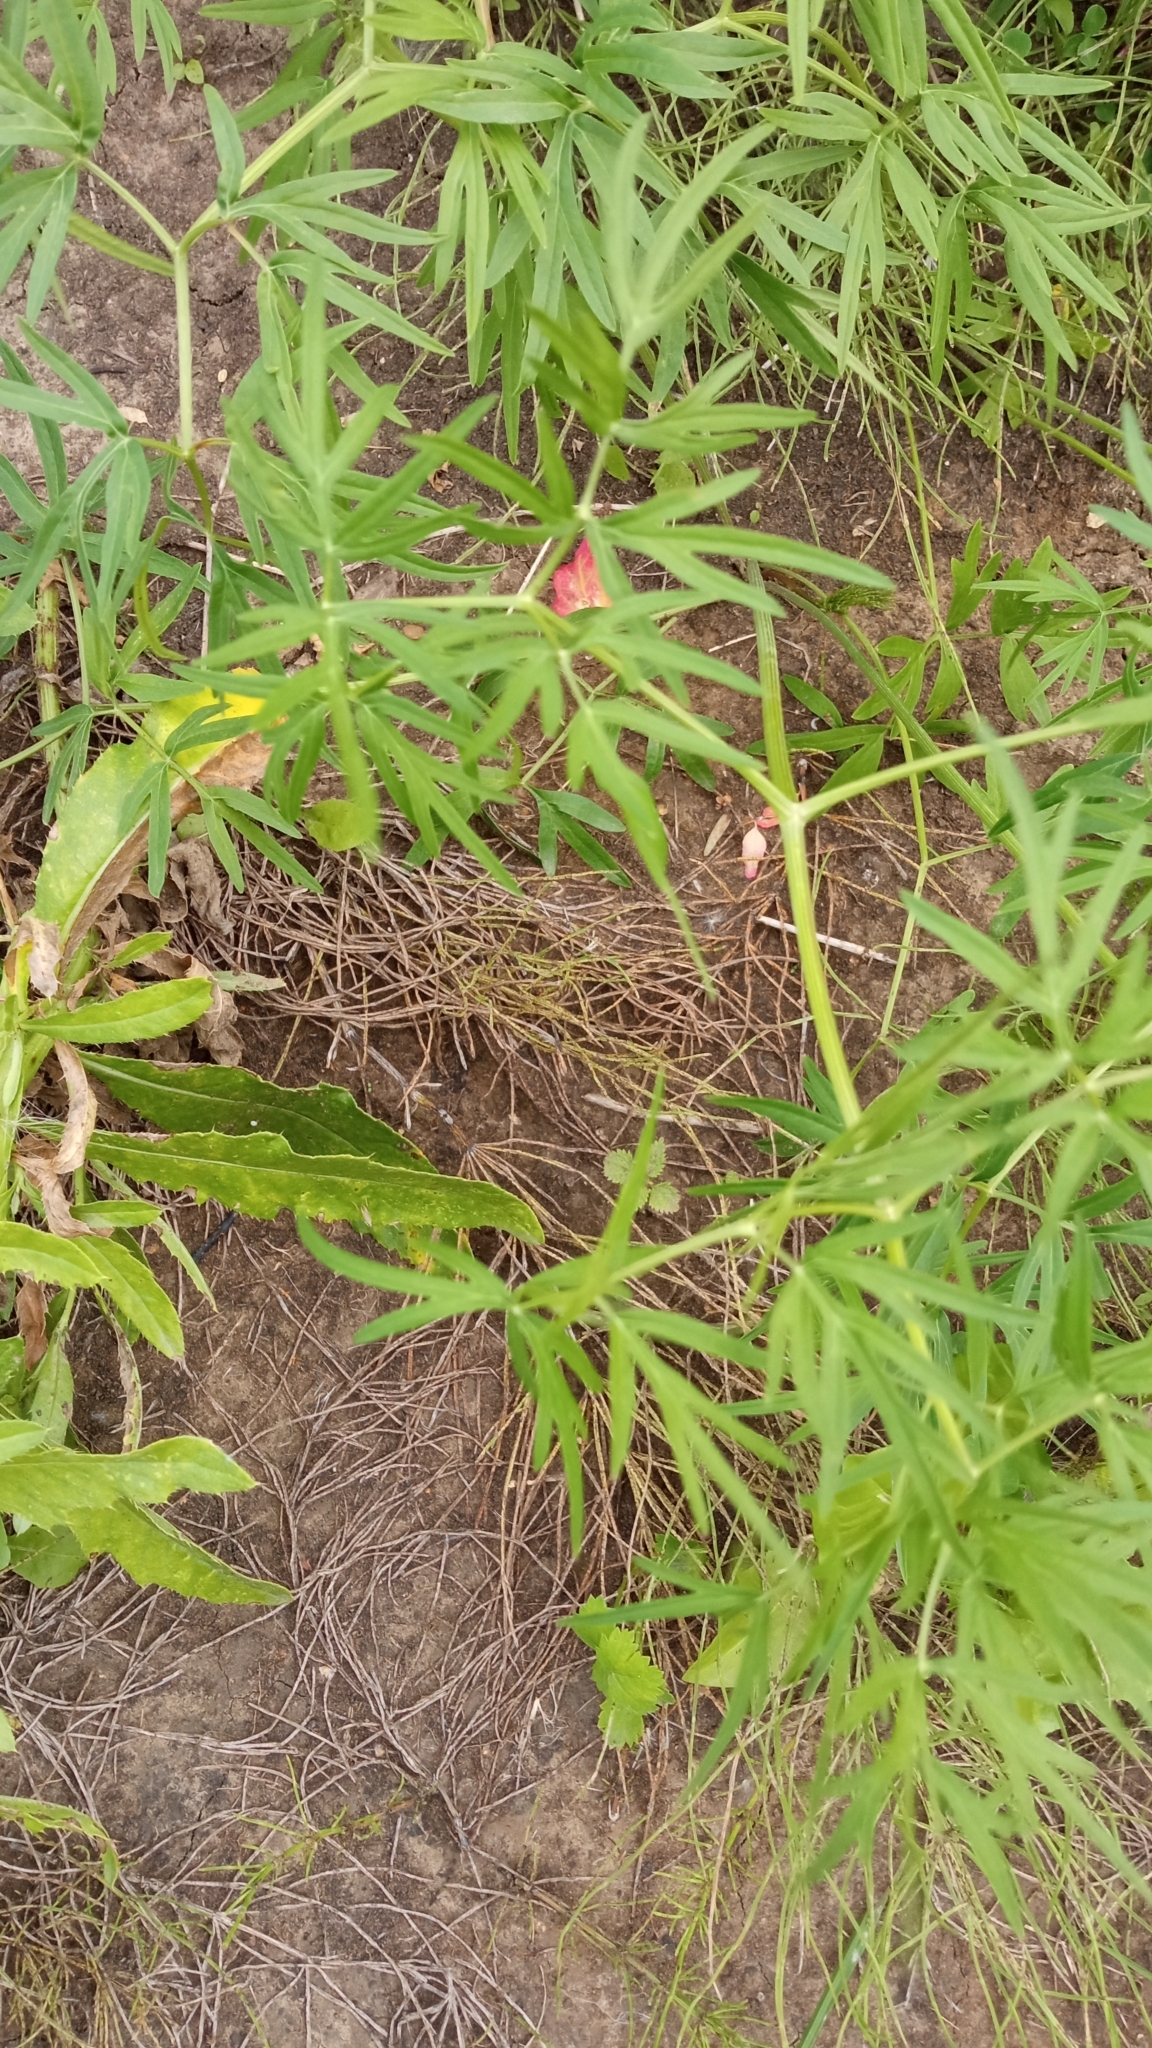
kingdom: Plantae
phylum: Tracheophyta
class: Magnoliopsida
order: Apiales
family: Apiaceae
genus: Cenolophium
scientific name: Cenolophium fischeri
